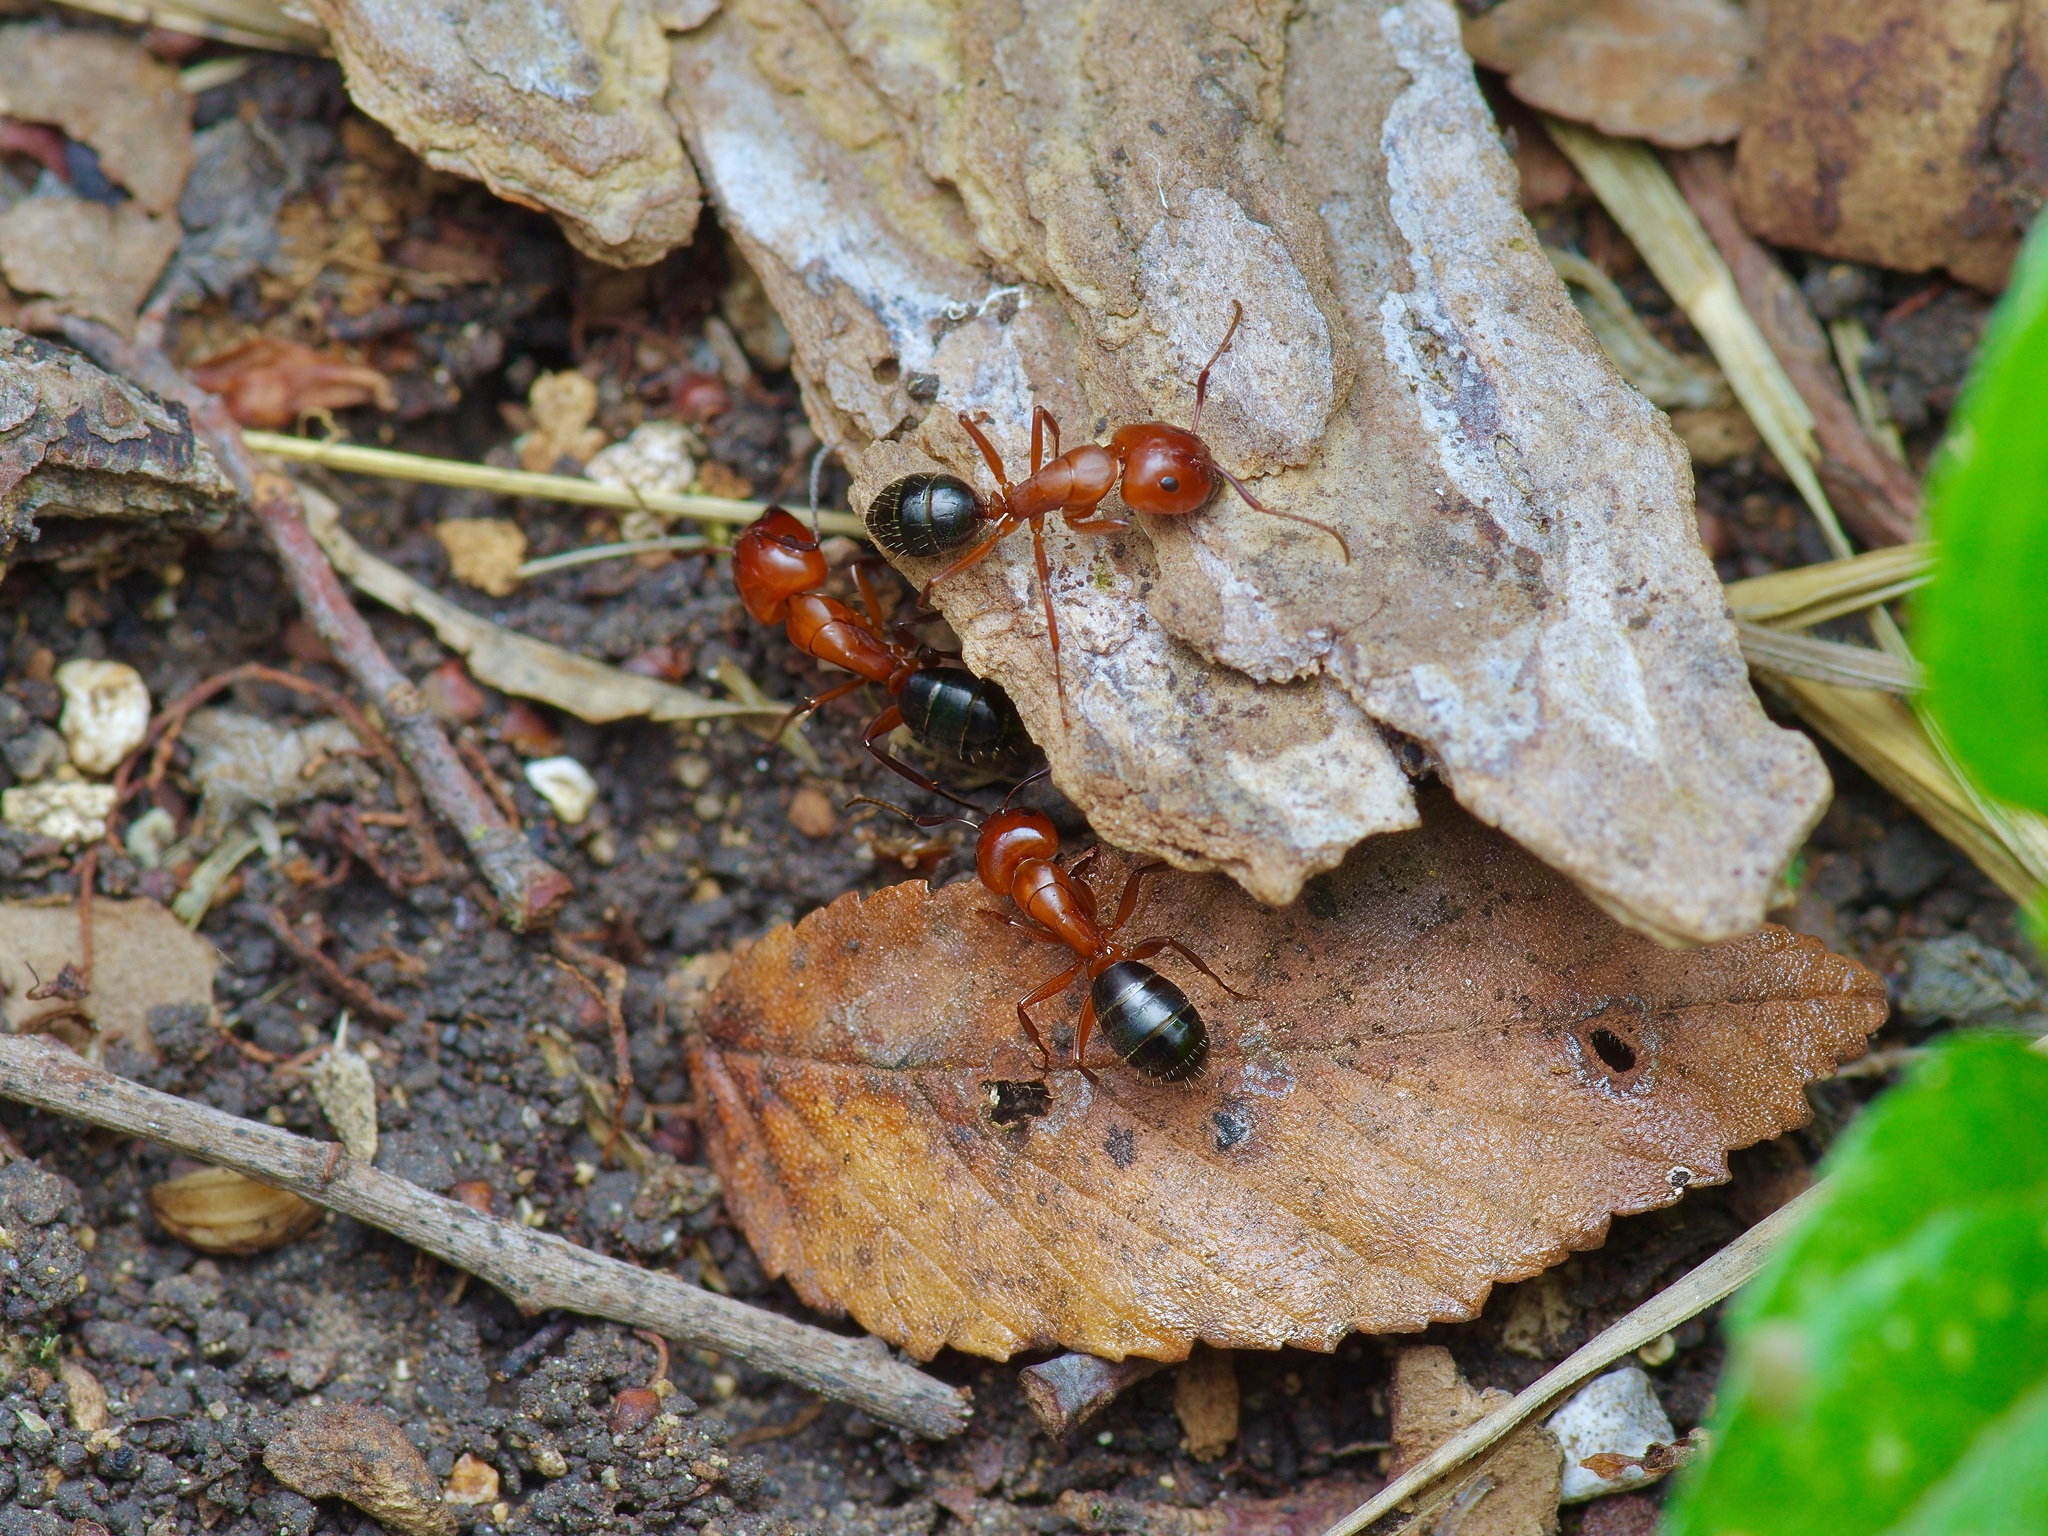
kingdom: Animalia
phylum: Arthropoda
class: Insecta
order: Hymenoptera
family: Formicidae
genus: Camponotus
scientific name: Camponotus decipiens
